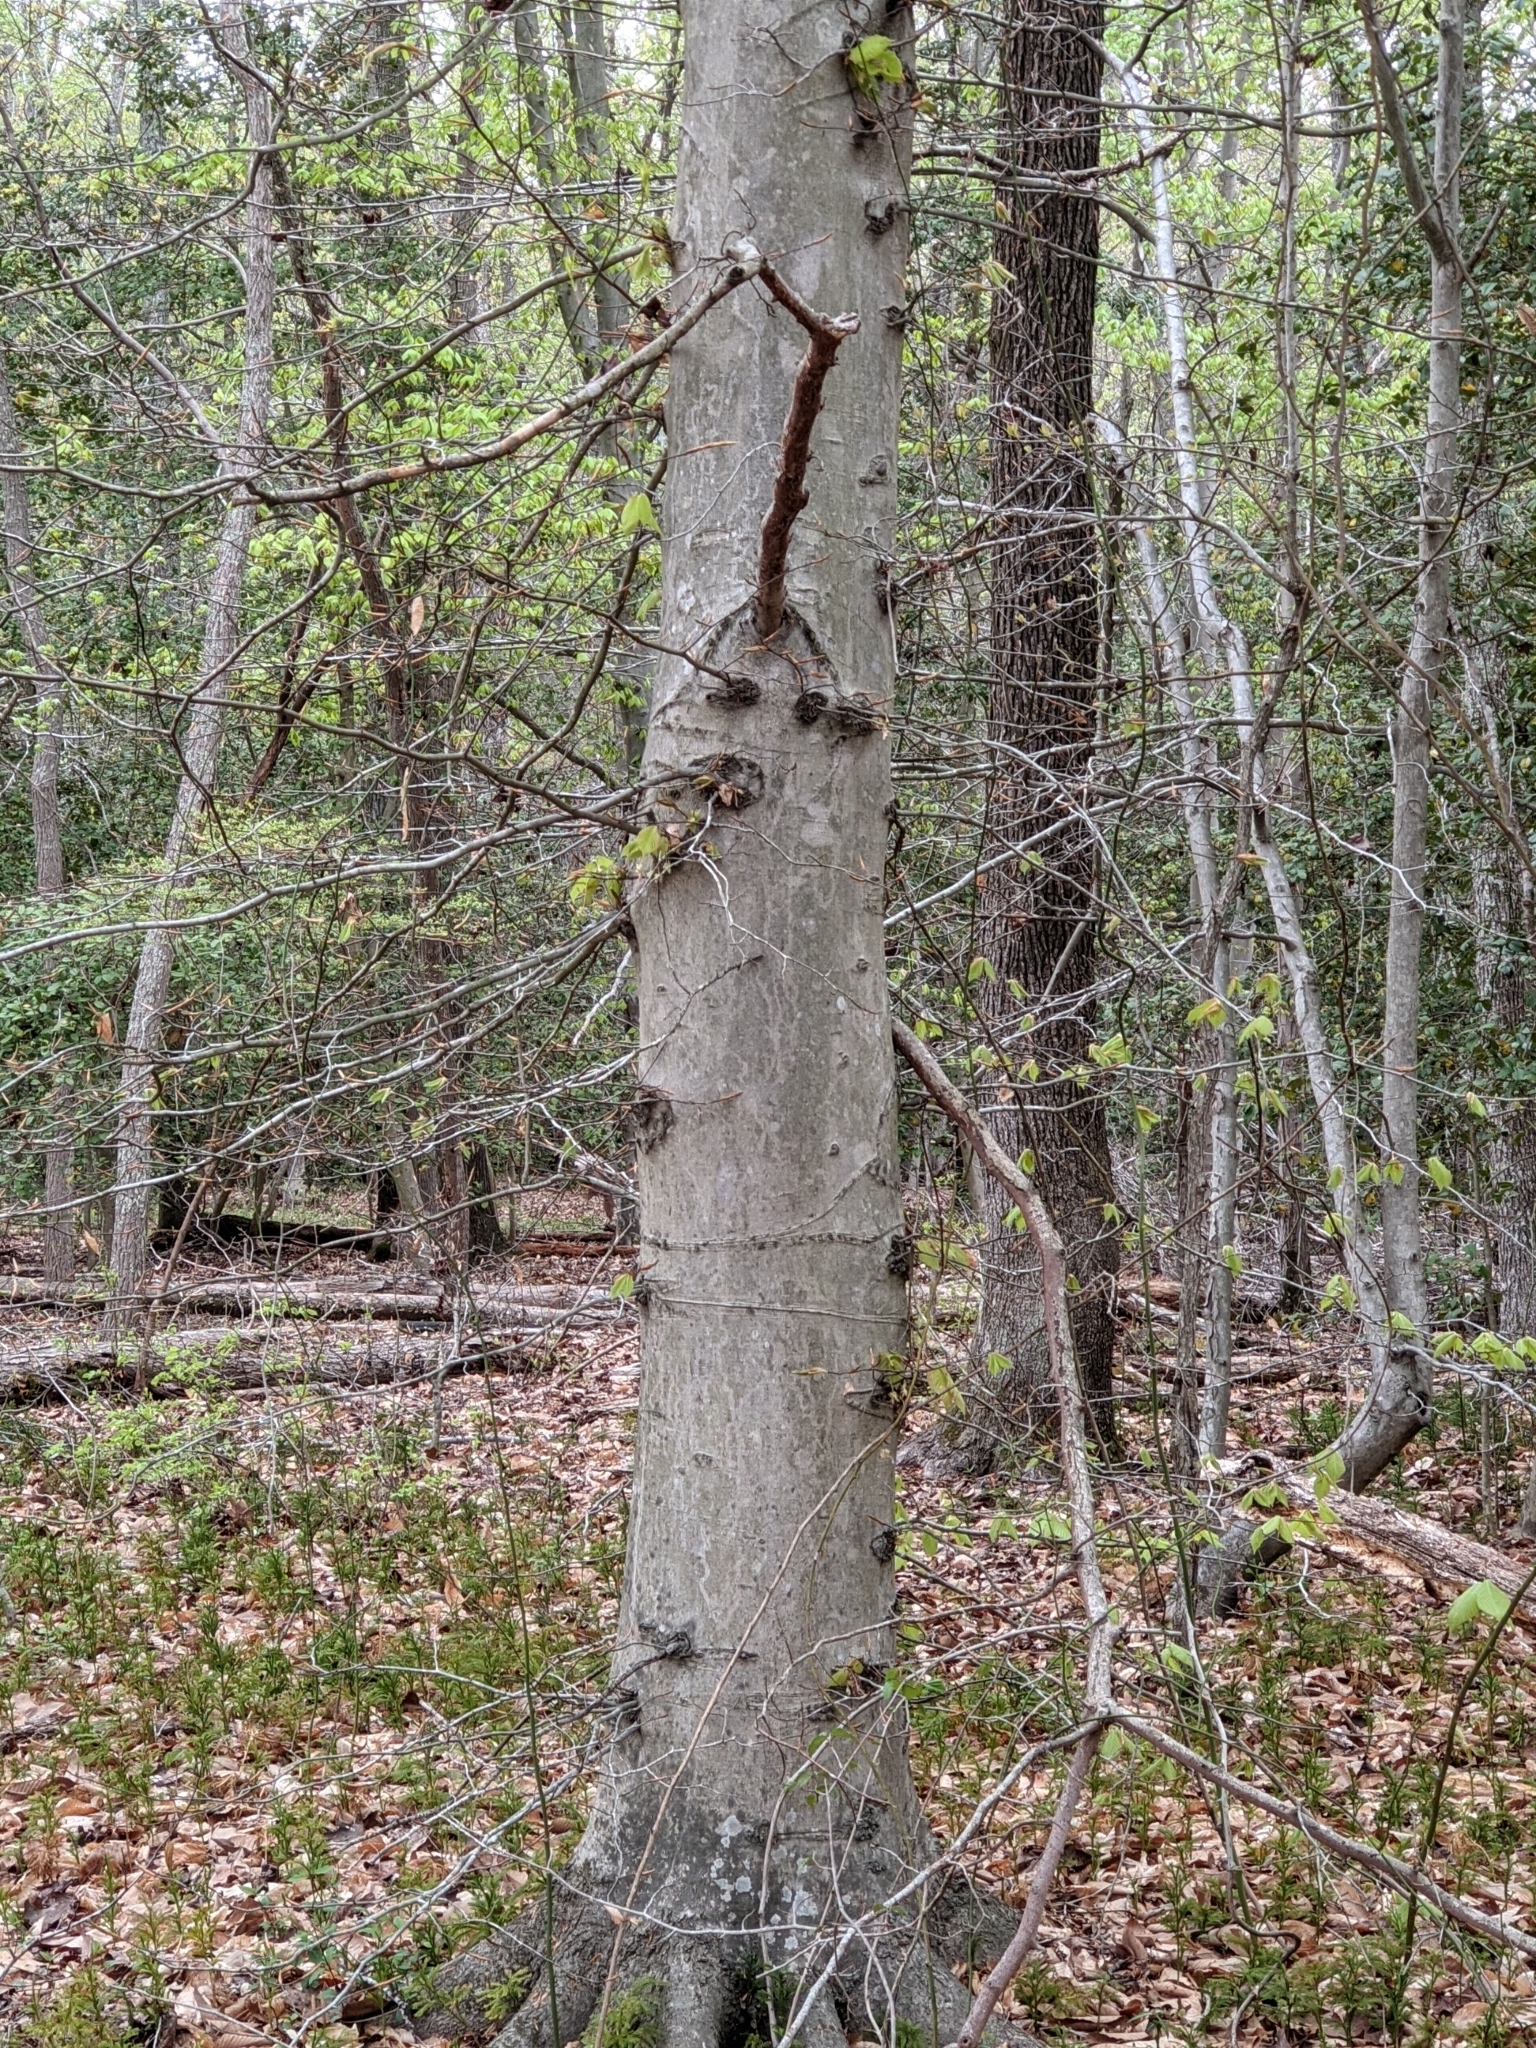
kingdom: Plantae
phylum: Tracheophyta
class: Magnoliopsida
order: Fagales
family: Fagaceae
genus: Fagus
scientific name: Fagus grandifolia
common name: American beech
